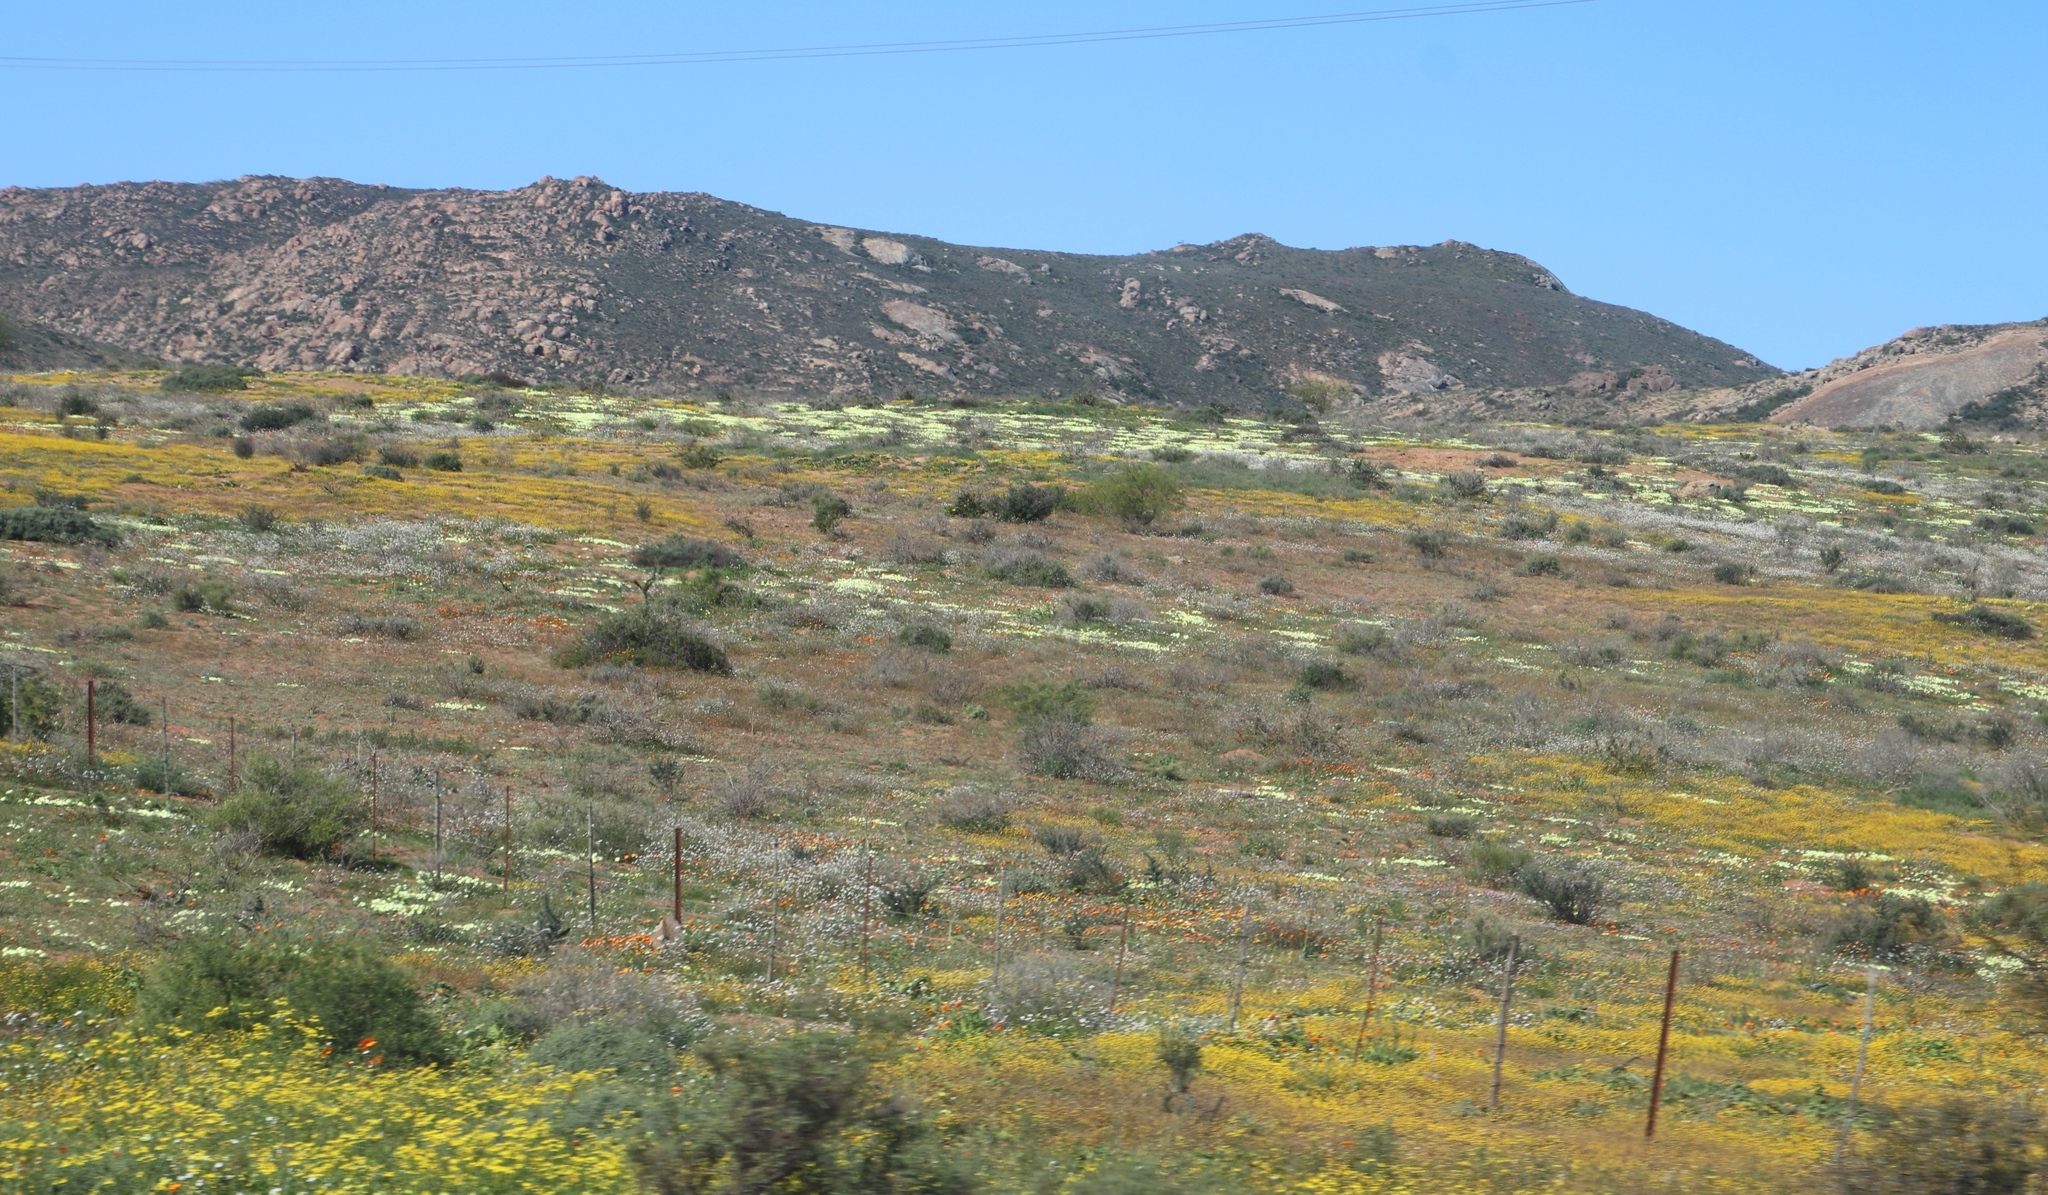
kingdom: Plantae
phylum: Tracheophyta
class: Magnoliopsida
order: Asterales
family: Asteraceae
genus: Senecio
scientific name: Senecio abruptus
